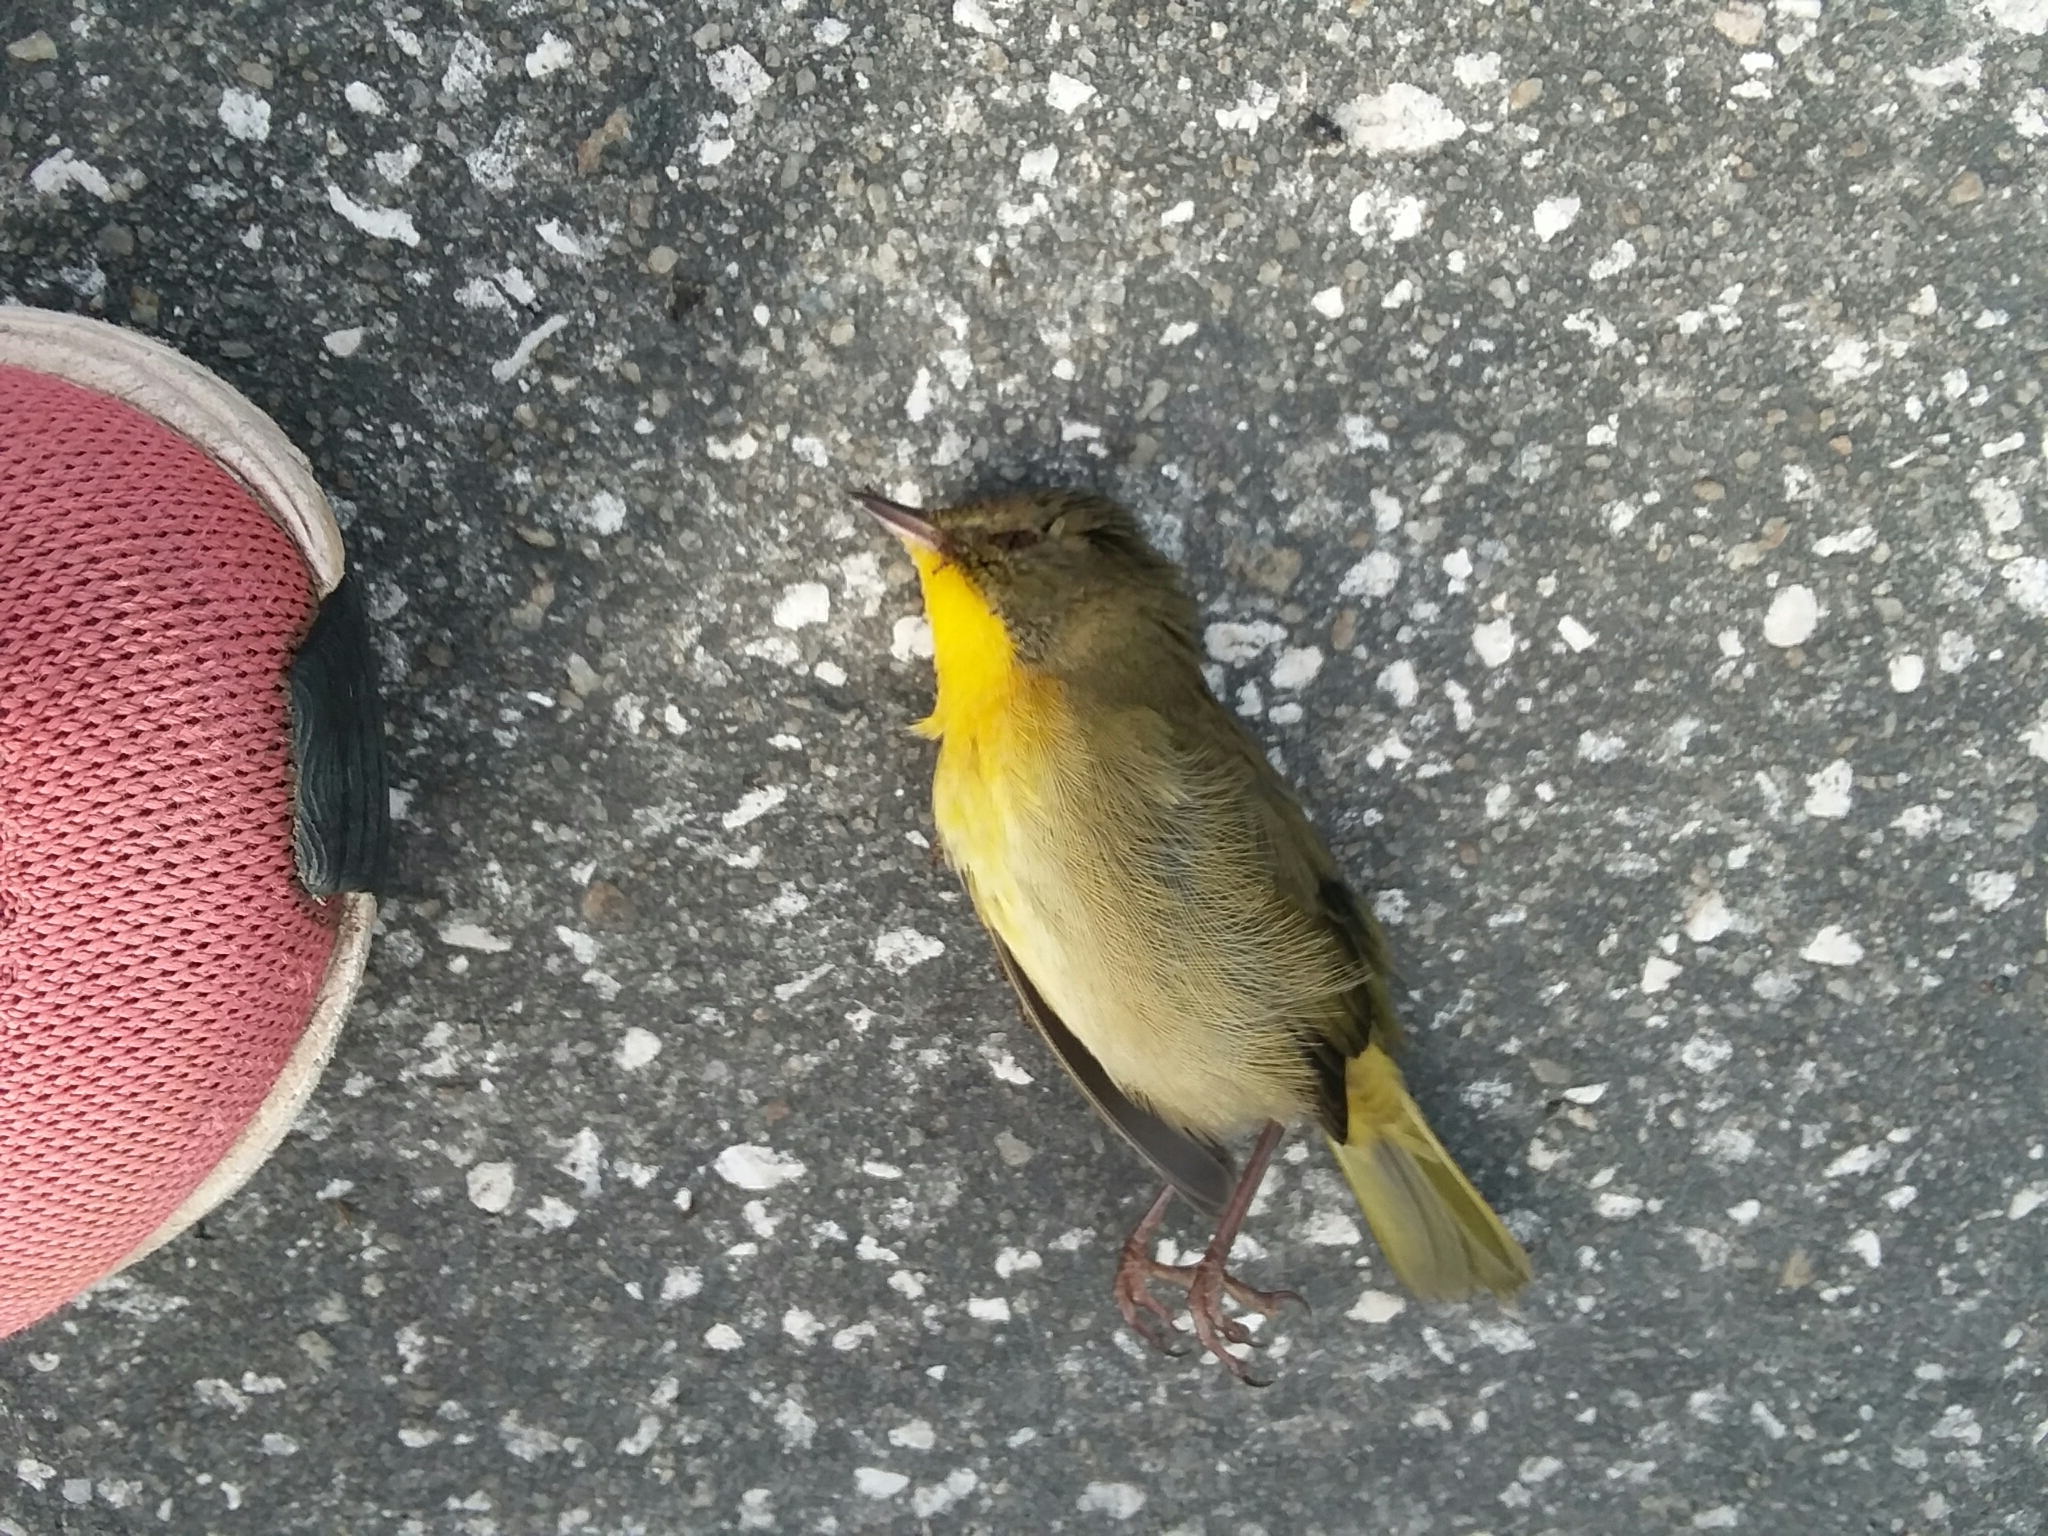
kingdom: Animalia
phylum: Chordata
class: Aves
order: Passeriformes
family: Parulidae
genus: Geothlypis
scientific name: Geothlypis trichas
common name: Common yellowthroat
